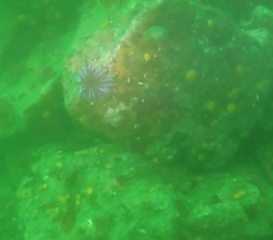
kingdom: Animalia
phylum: Echinodermata
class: Echinoidea
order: Camarodonta
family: Strongylocentrotidae
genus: Strongylocentrotus
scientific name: Strongylocentrotus purpuratus
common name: Purple sea urchin
